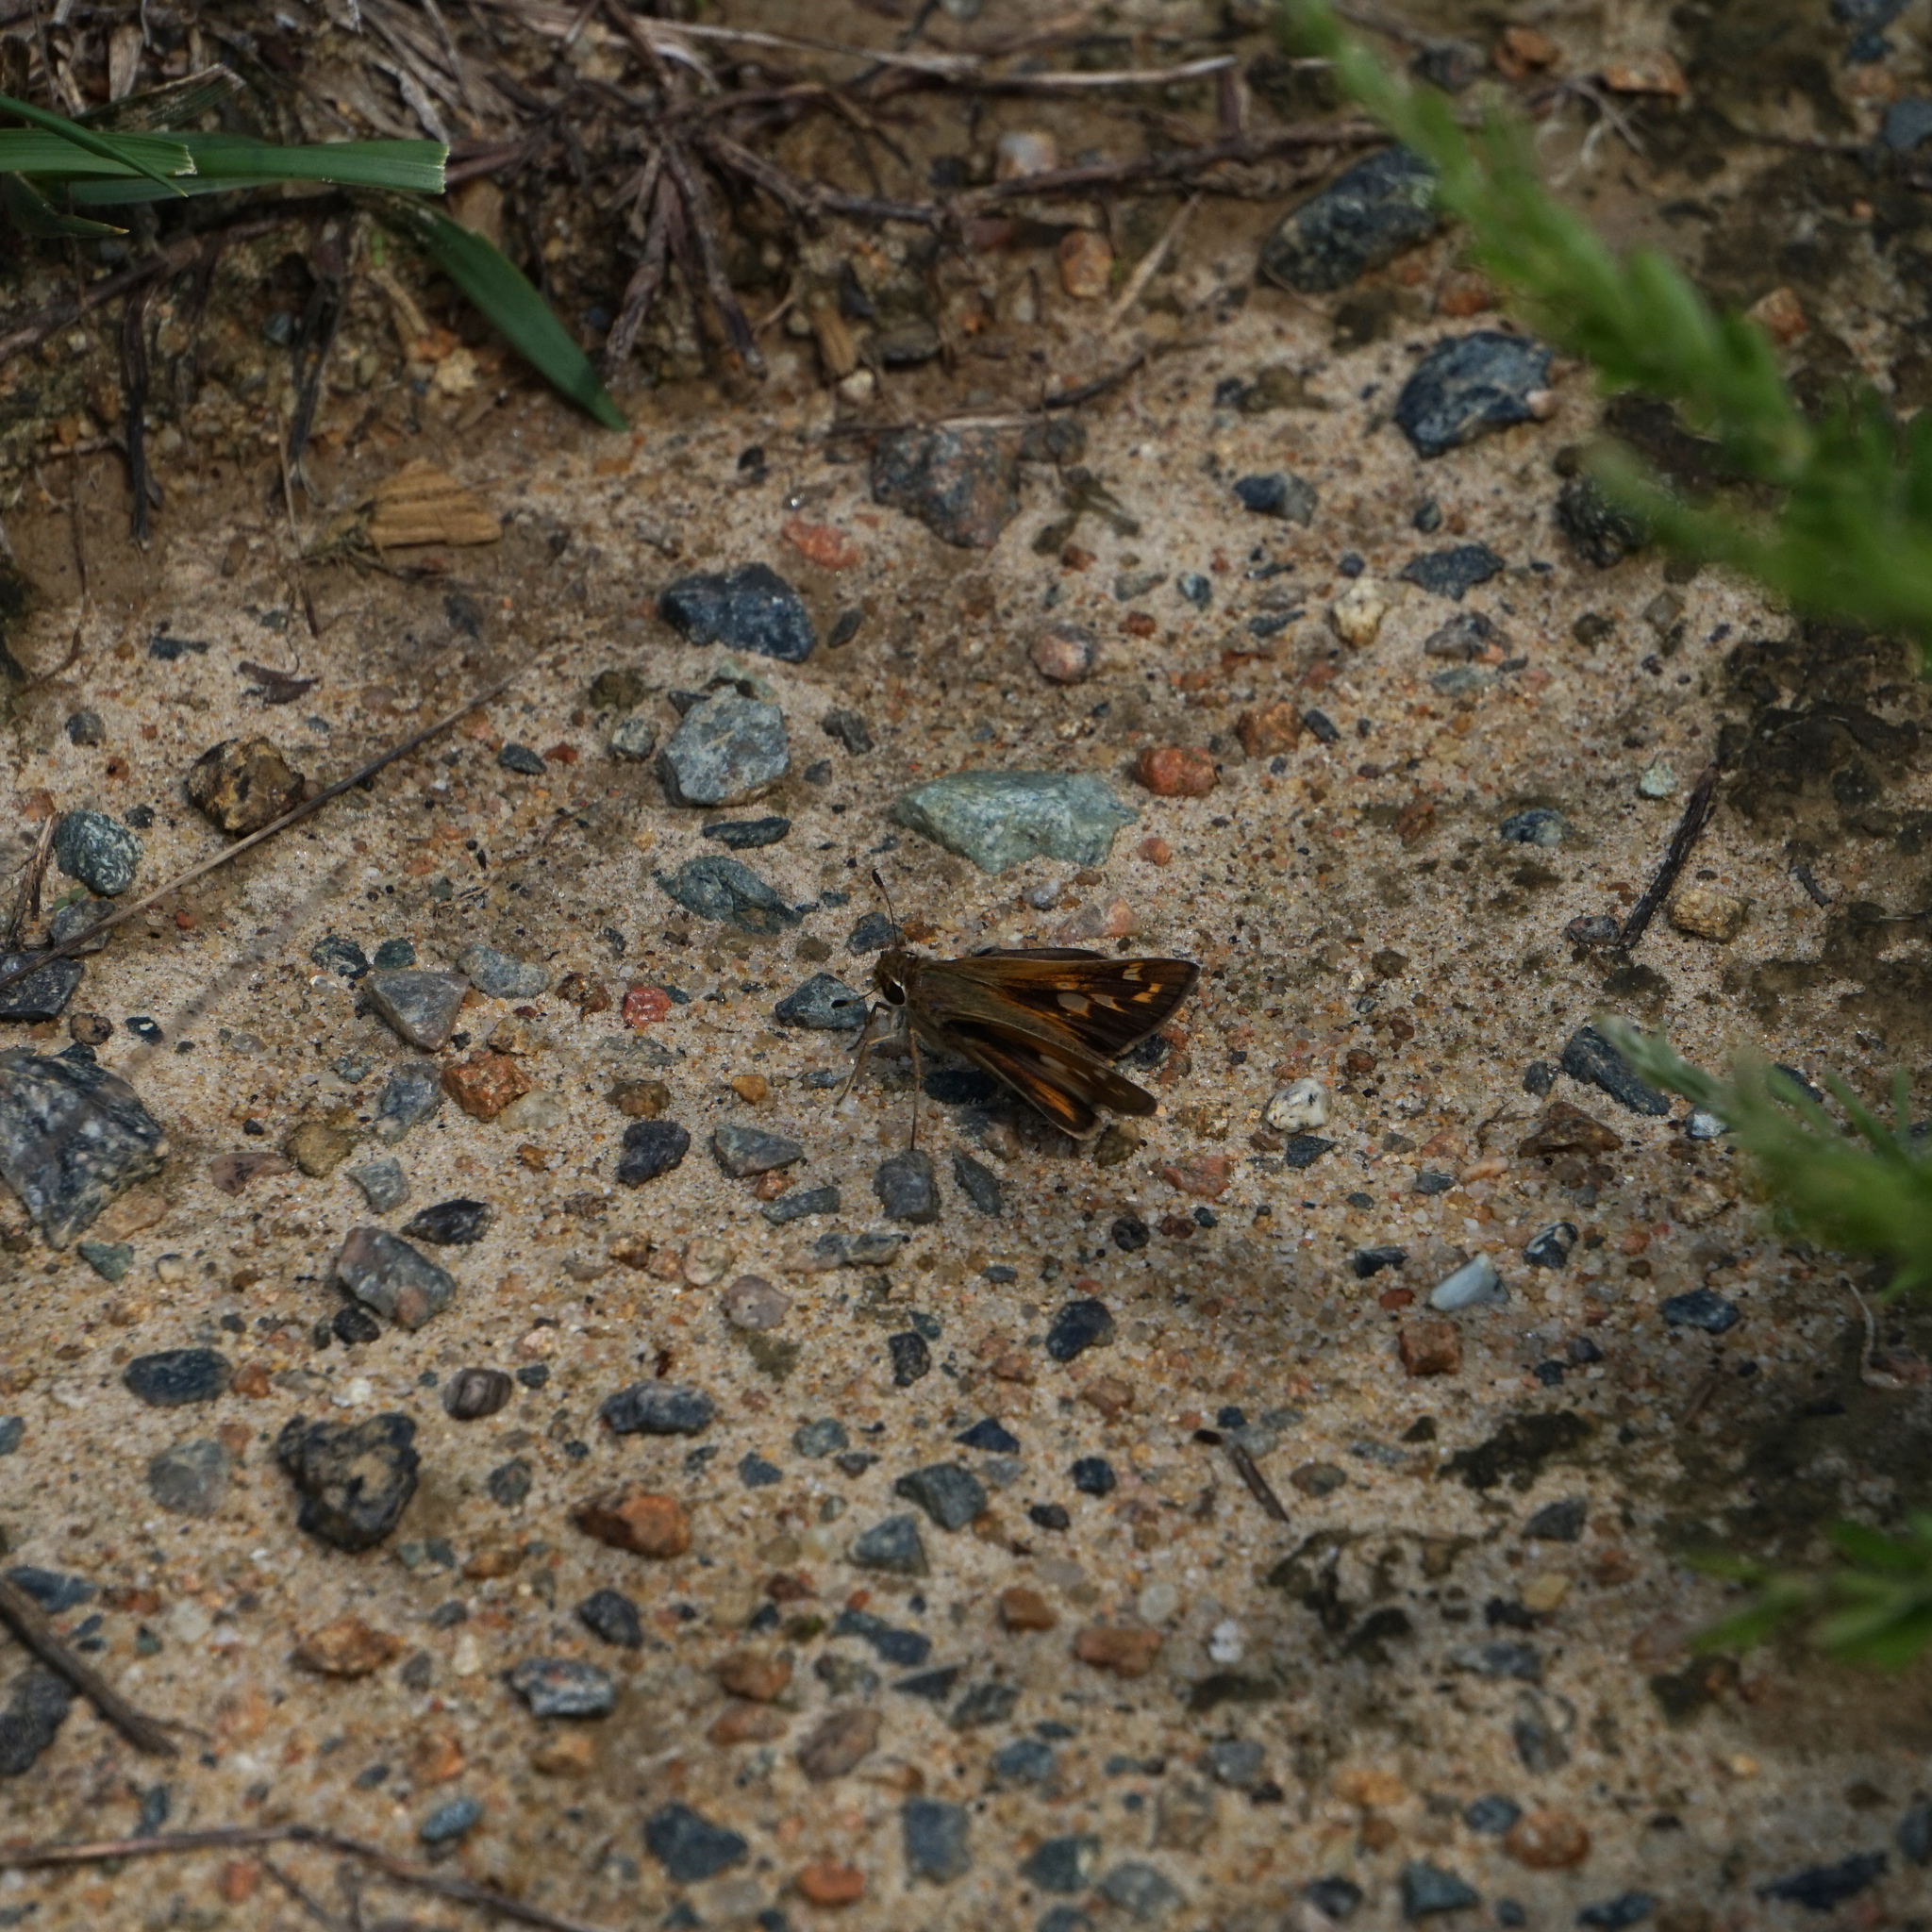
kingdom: Animalia
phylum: Arthropoda
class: Insecta
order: Lepidoptera
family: Hesperiidae
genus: Atalopedes
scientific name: Atalopedes
